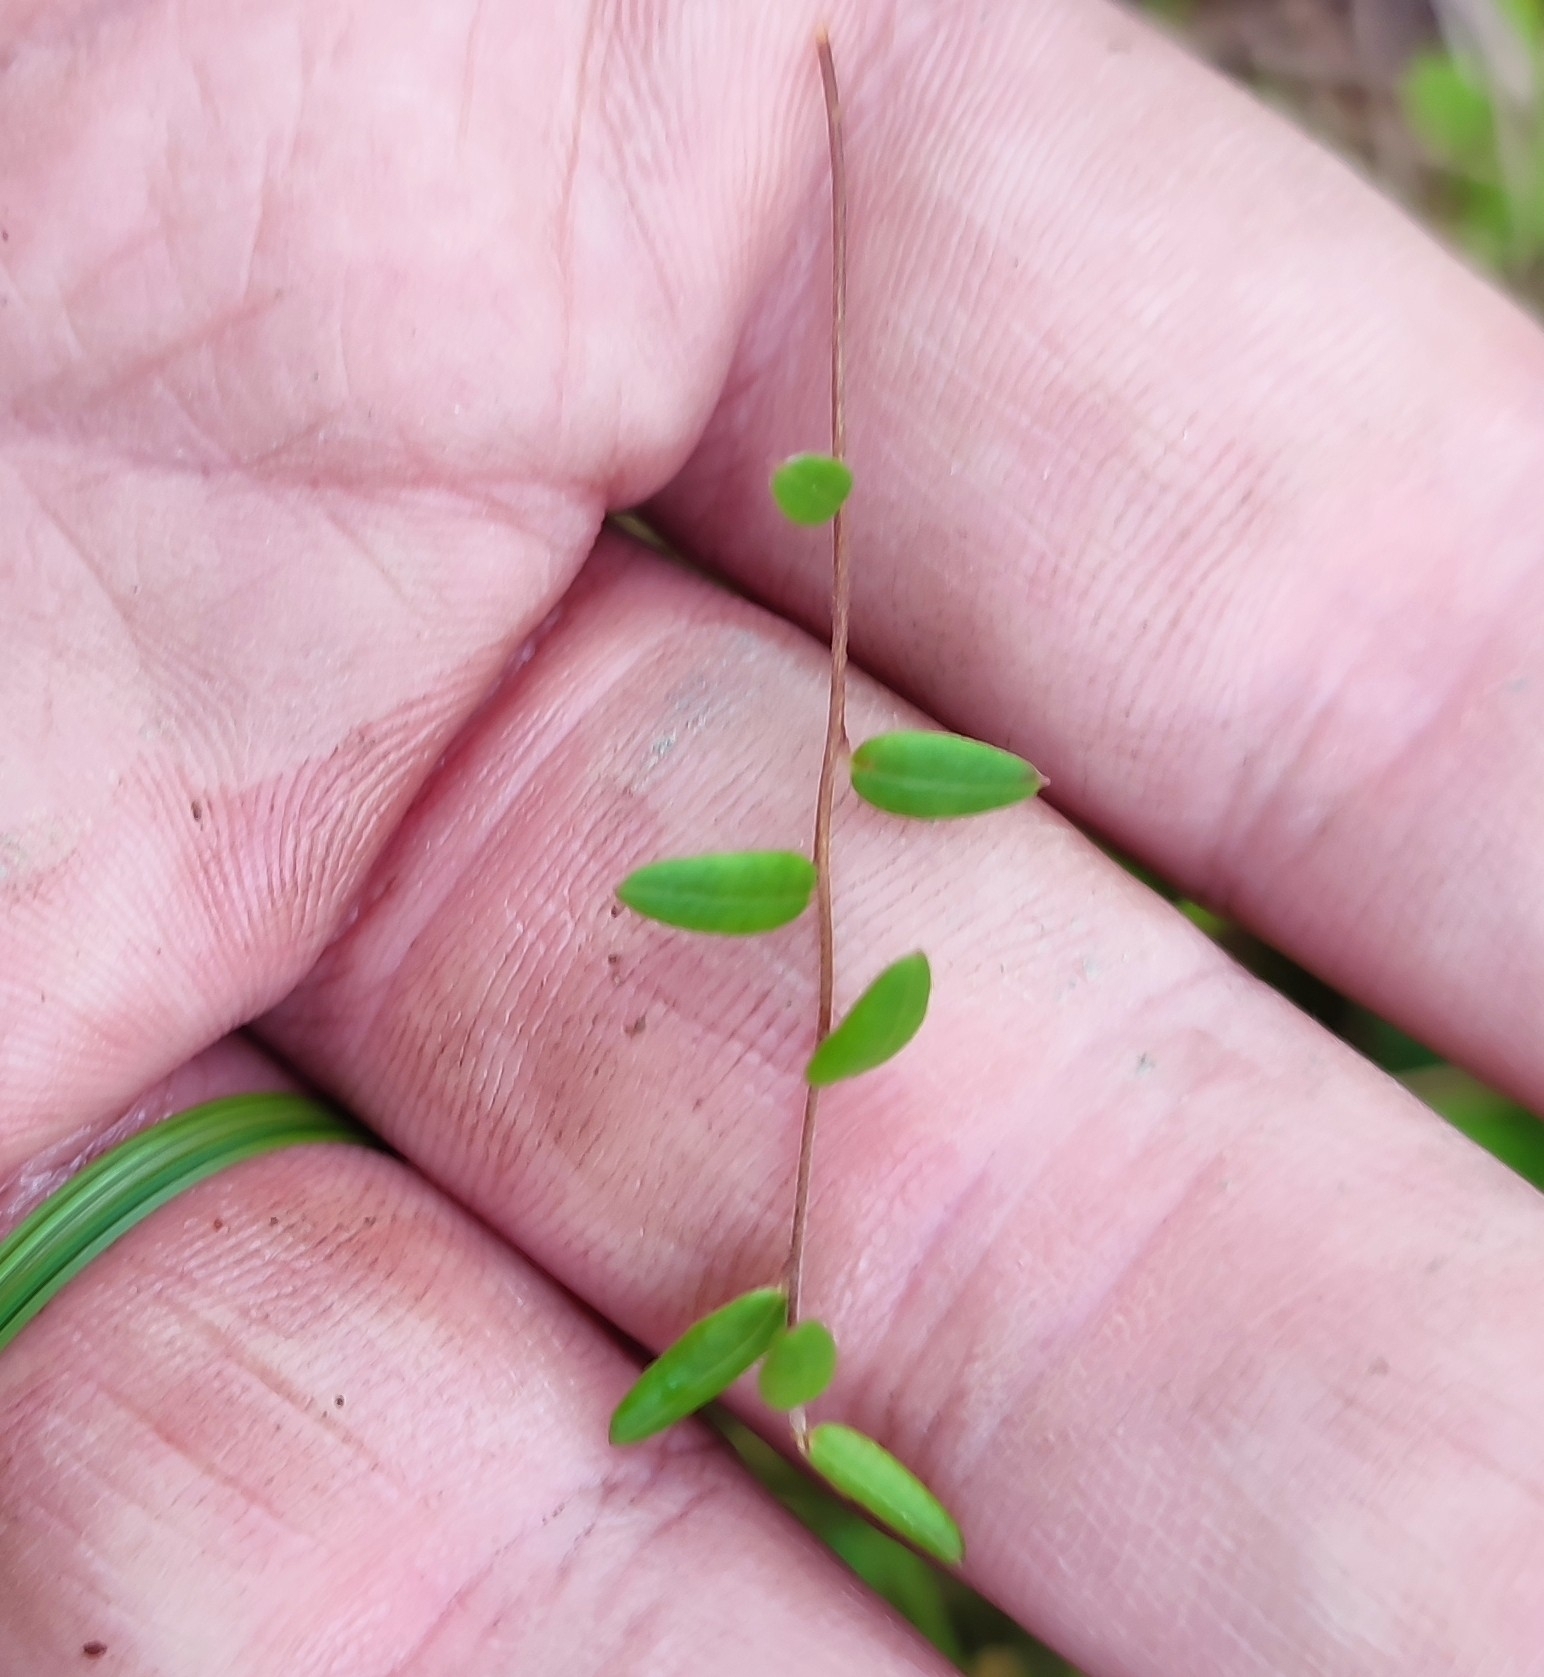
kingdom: Plantae
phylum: Tracheophyta
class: Magnoliopsida
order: Ericales
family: Ericaceae
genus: Vaccinium
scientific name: Vaccinium oxycoccos
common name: Cranberry
